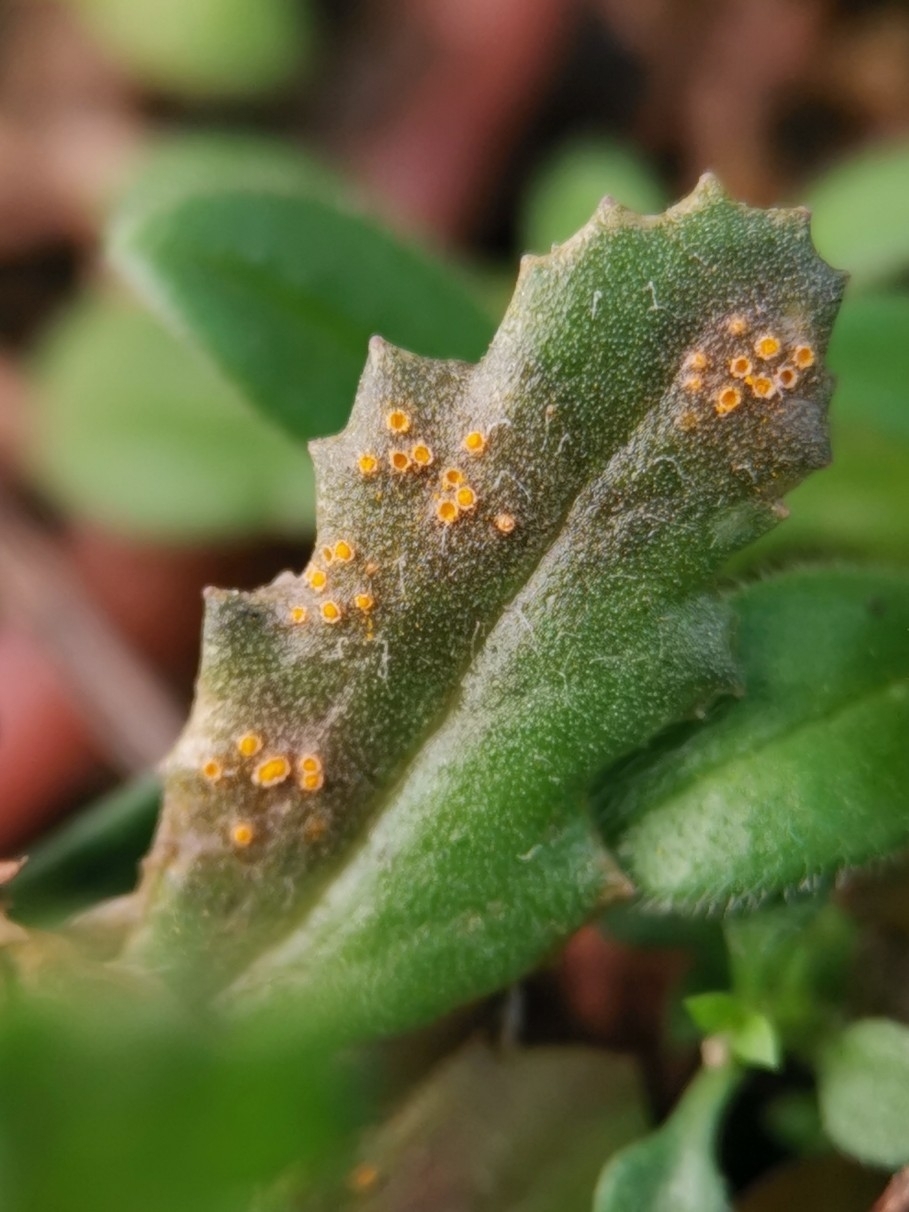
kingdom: Fungi
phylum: Basidiomycota
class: Pucciniomycetes
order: Pucciniales
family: Pucciniaceae
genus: Puccinia
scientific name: Puccinia lagenophorae
